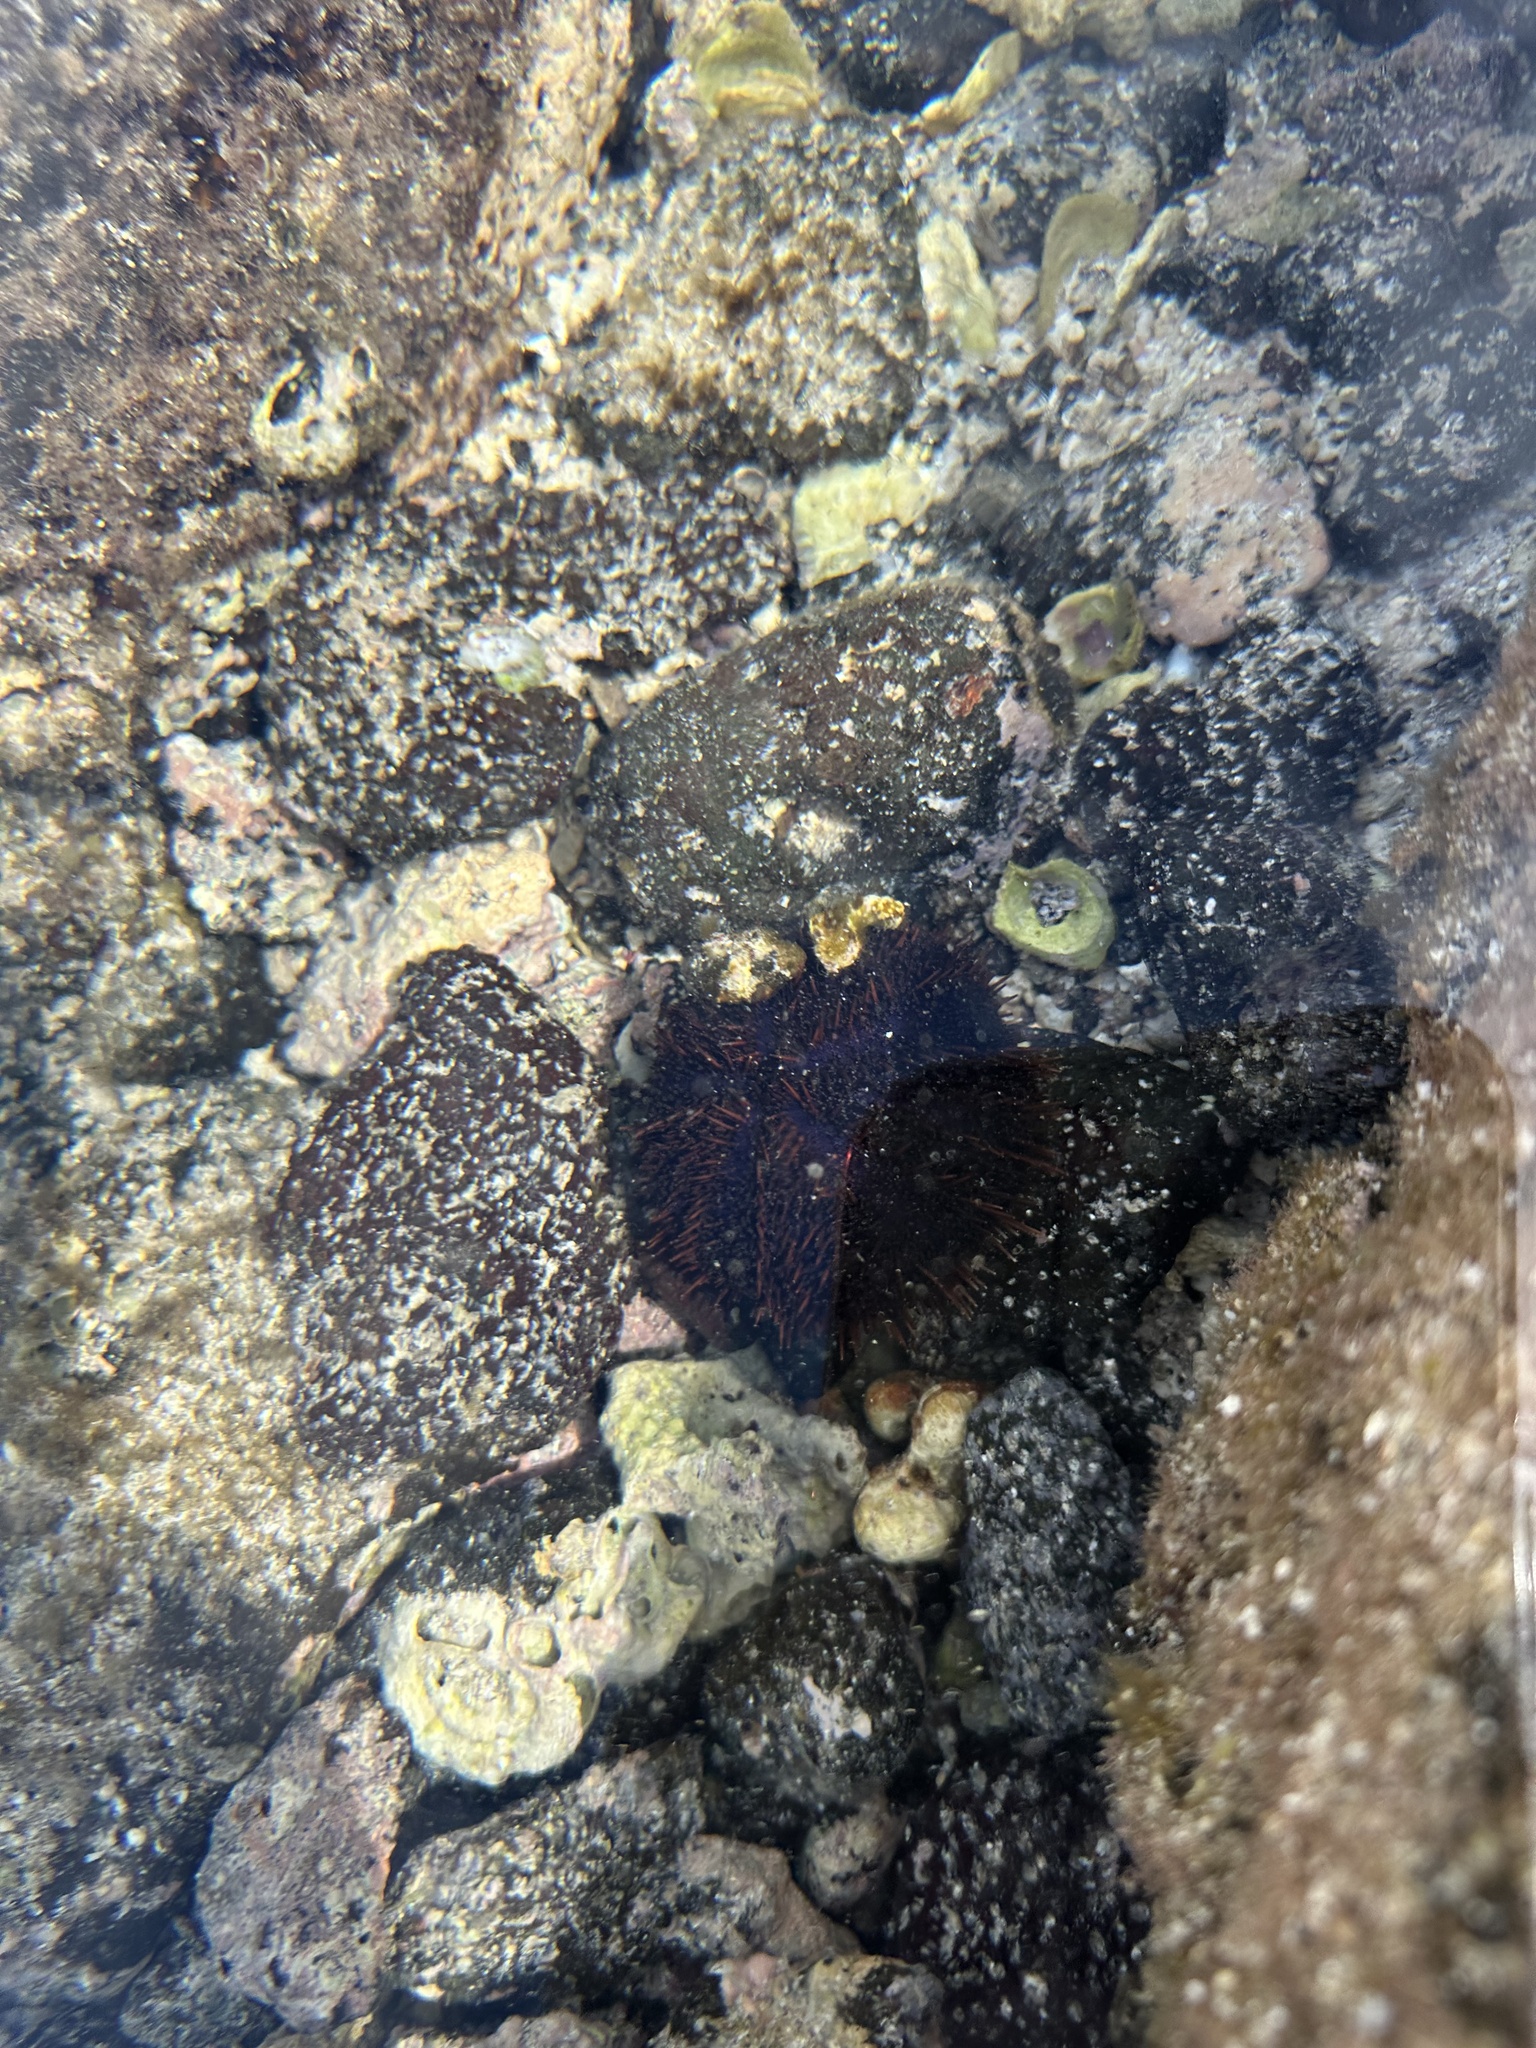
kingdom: Animalia
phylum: Echinodermata
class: Echinoidea
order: Camarodonta
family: Toxopneustidae
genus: Tripneustes
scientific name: Tripneustes gratilla
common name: Bischofsmützenseeigel
